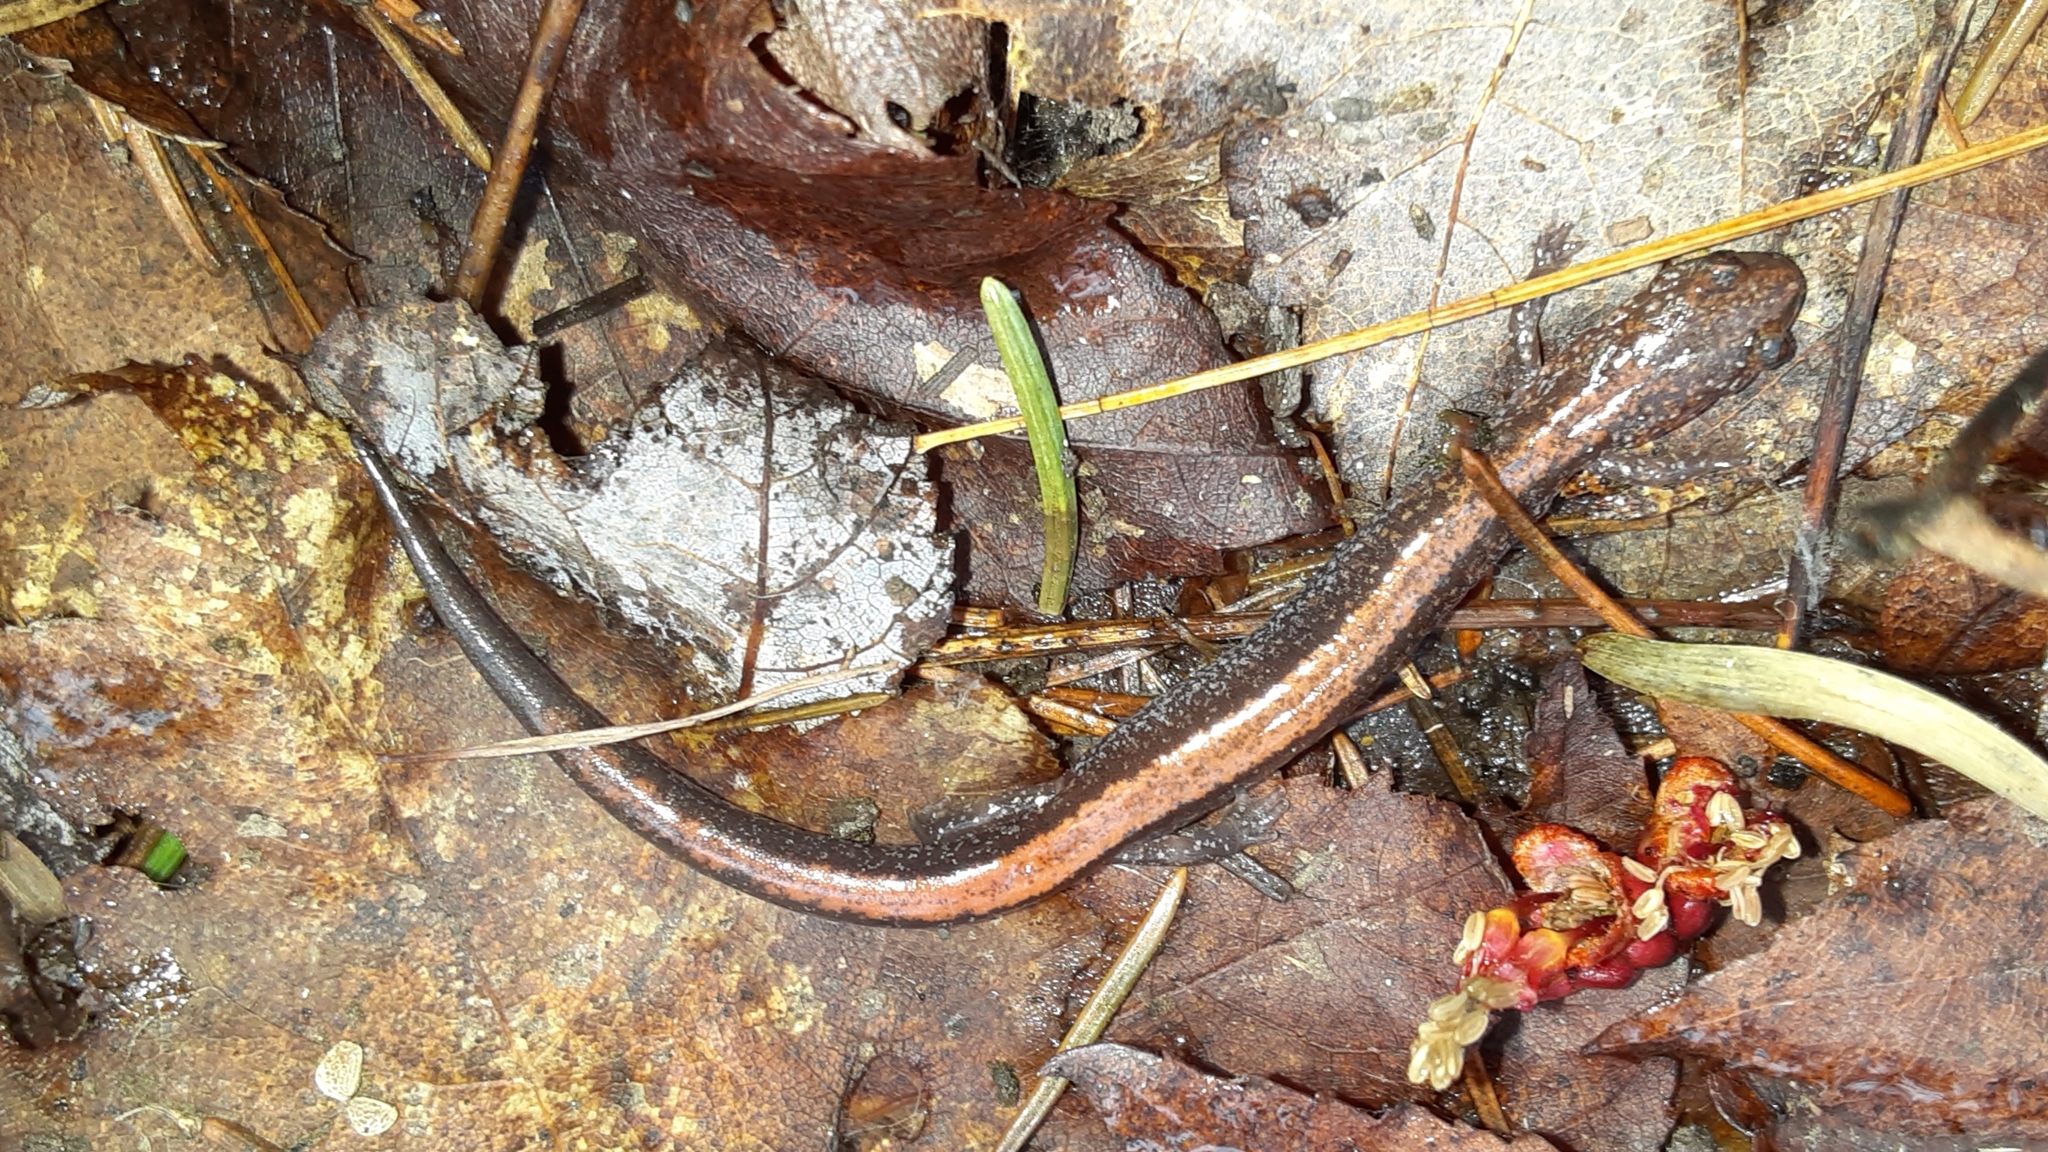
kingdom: Animalia
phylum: Chordata
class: Amphibia
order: Caudata
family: Plethodontidae
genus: Plethodon
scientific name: Plethodon cinereus
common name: Redback salamander
